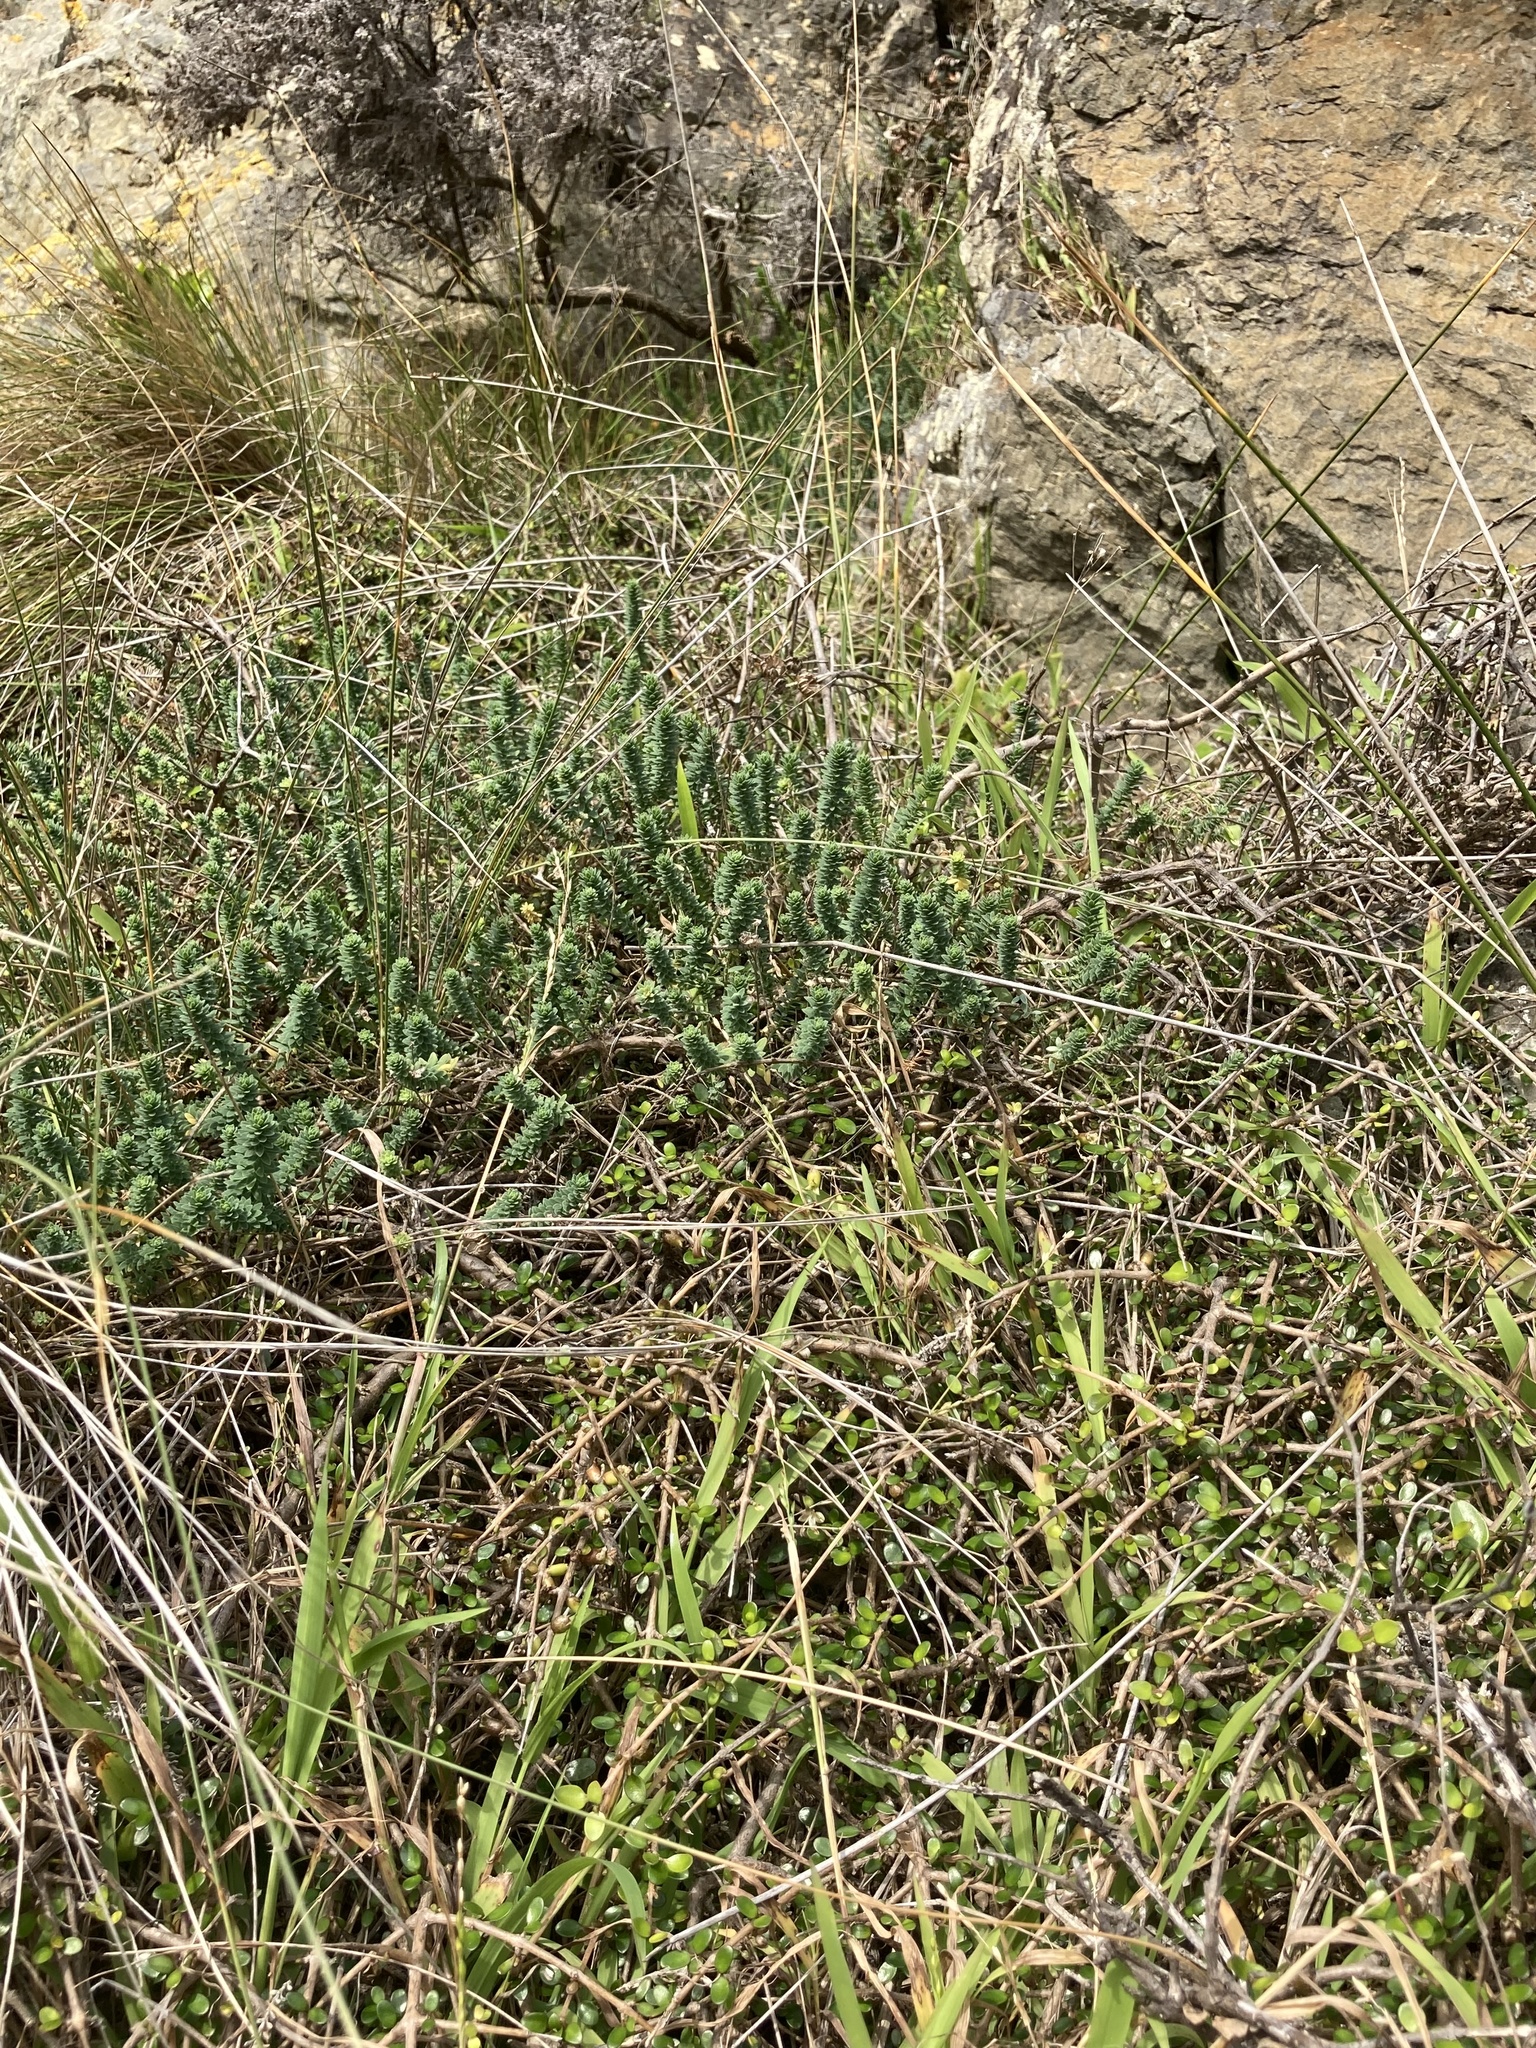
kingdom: Plantae
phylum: Tracheophyta
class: Magnoliopsida
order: Malpighiales
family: Linaceae
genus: Linum
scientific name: Linum monogynum
